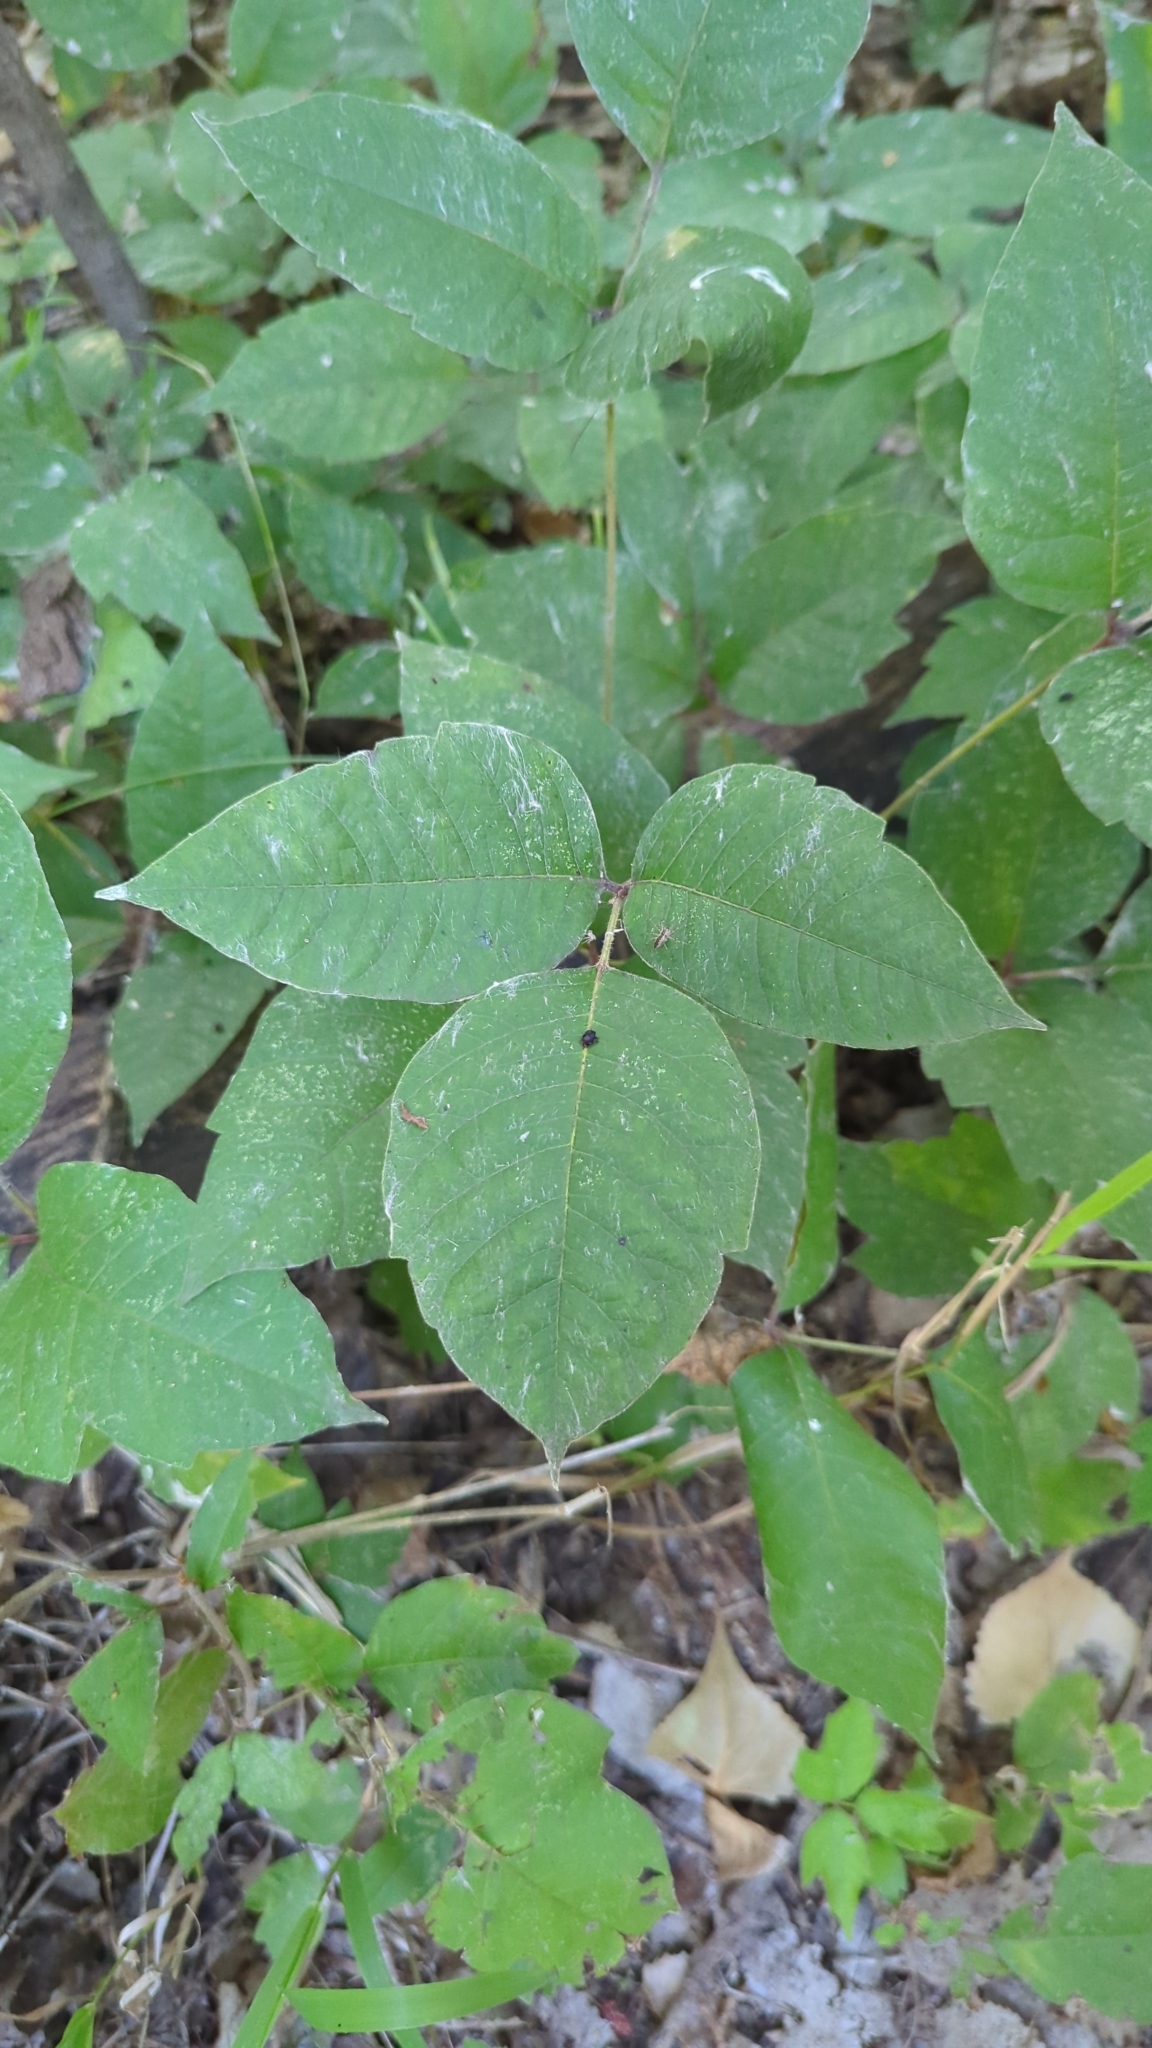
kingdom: Plantae
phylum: Tracheophyta
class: Magnoliopsida
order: Sapindales
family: Anacardiaceae
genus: Toxicodendron
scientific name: Toxicodendron radicans
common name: Poison ivy
